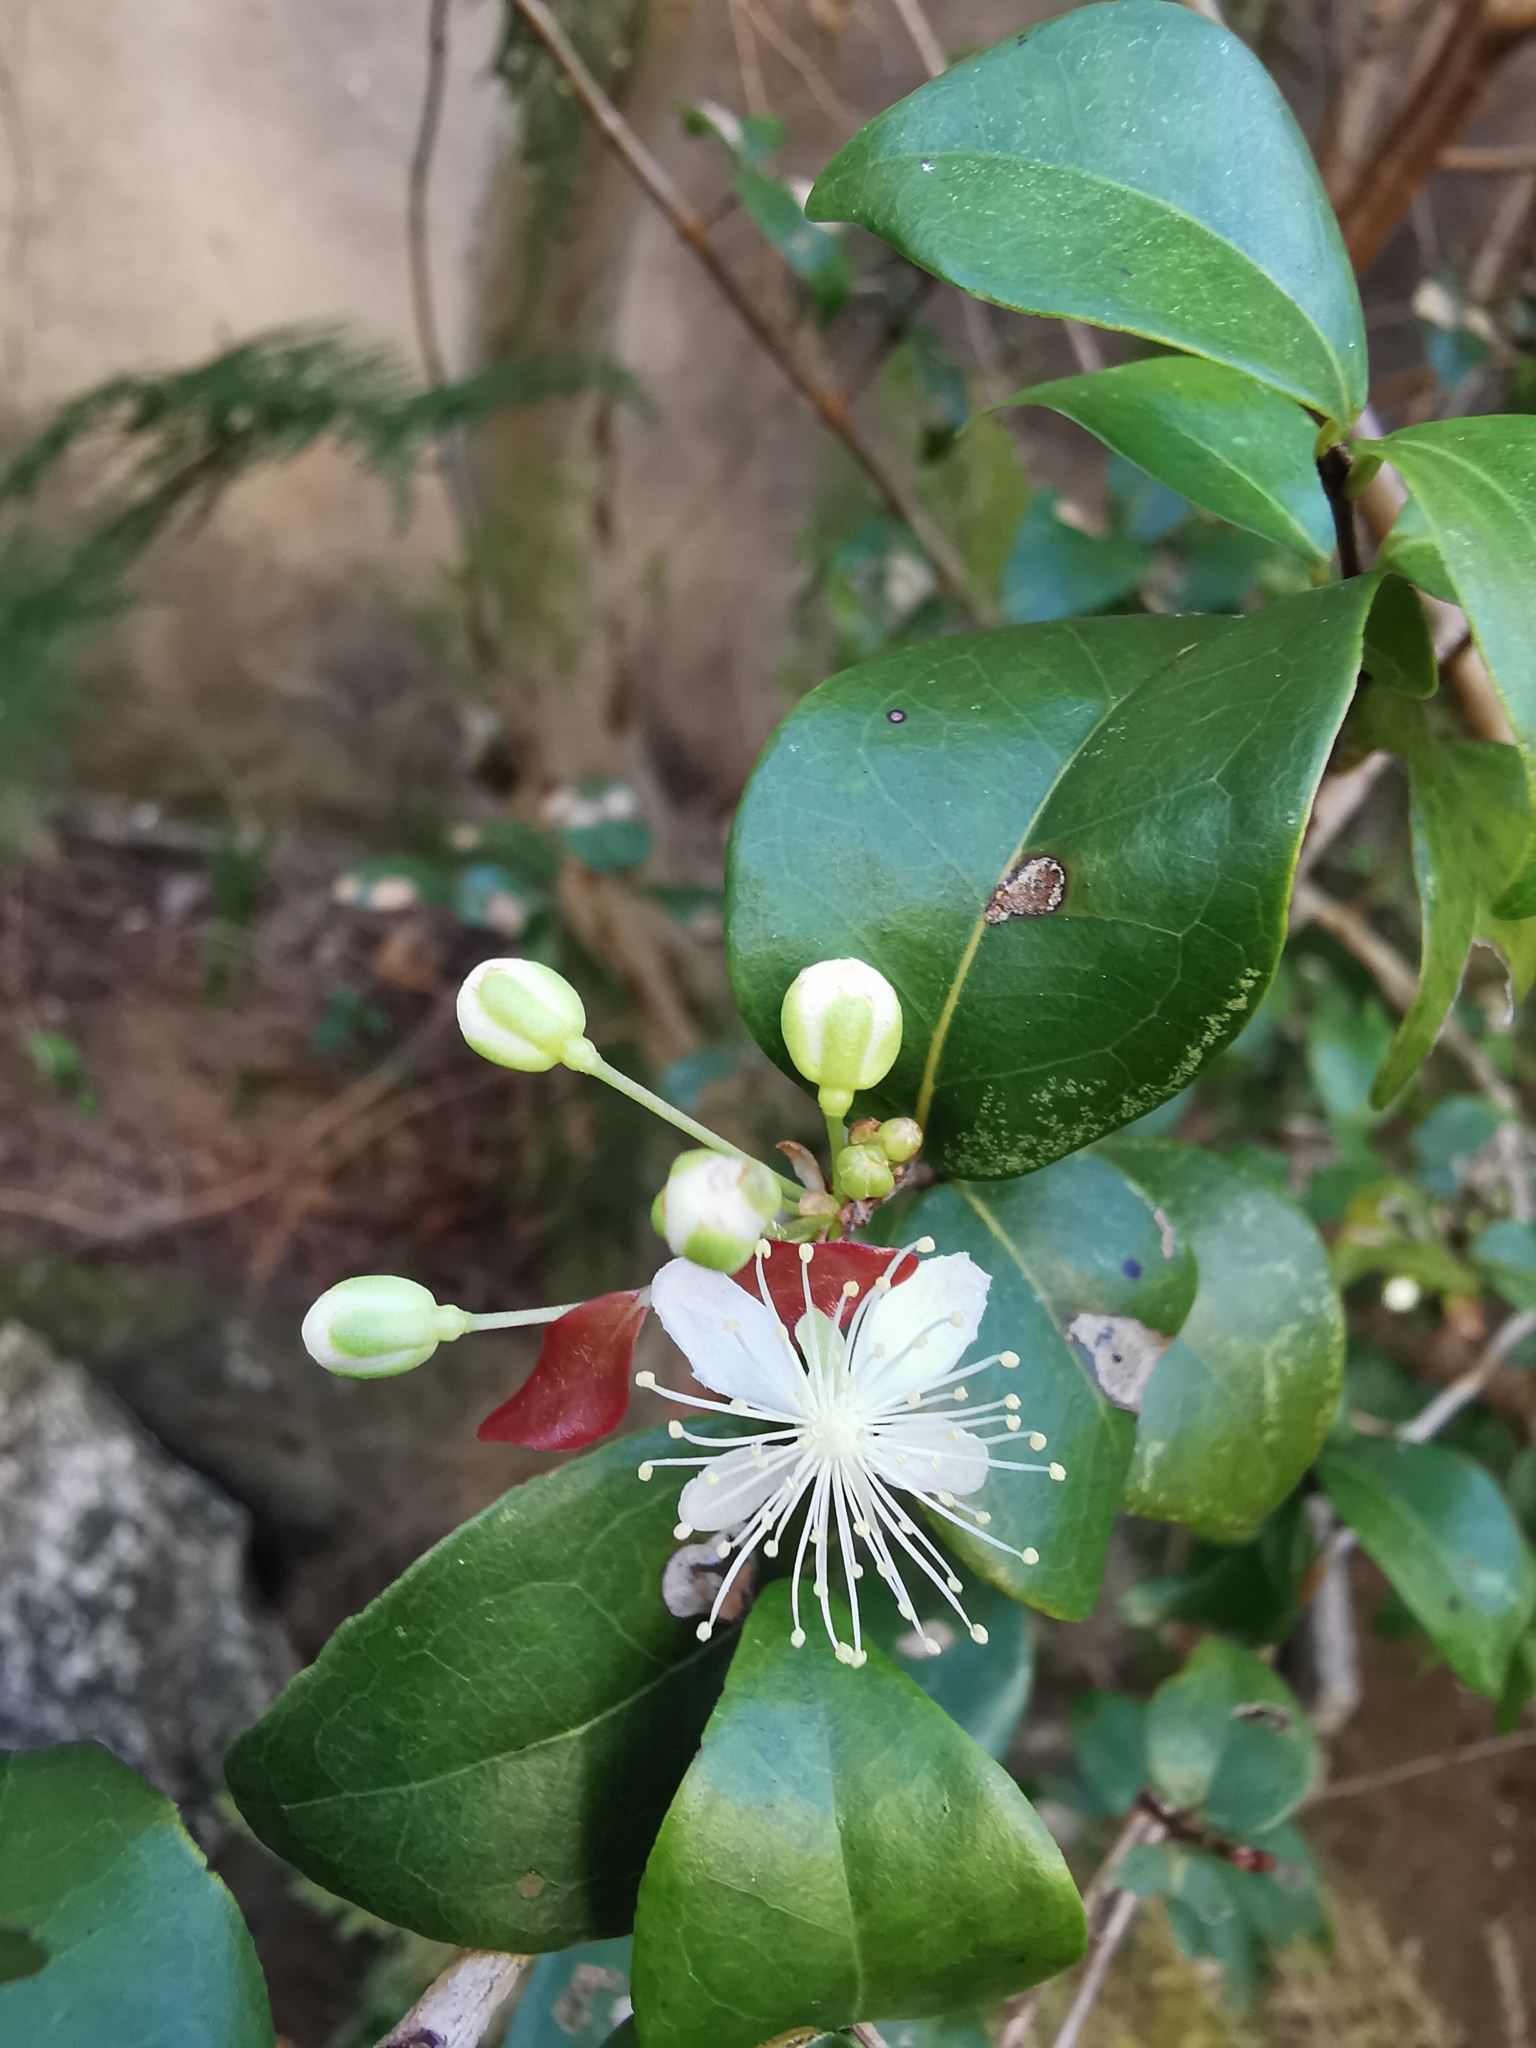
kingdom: Plantae
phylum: Tracheophyta
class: Magnoliopsida
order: Myrtales
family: Myrtaceae
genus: Eugenia
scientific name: Eugenia uniflora
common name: Surinam cherry
